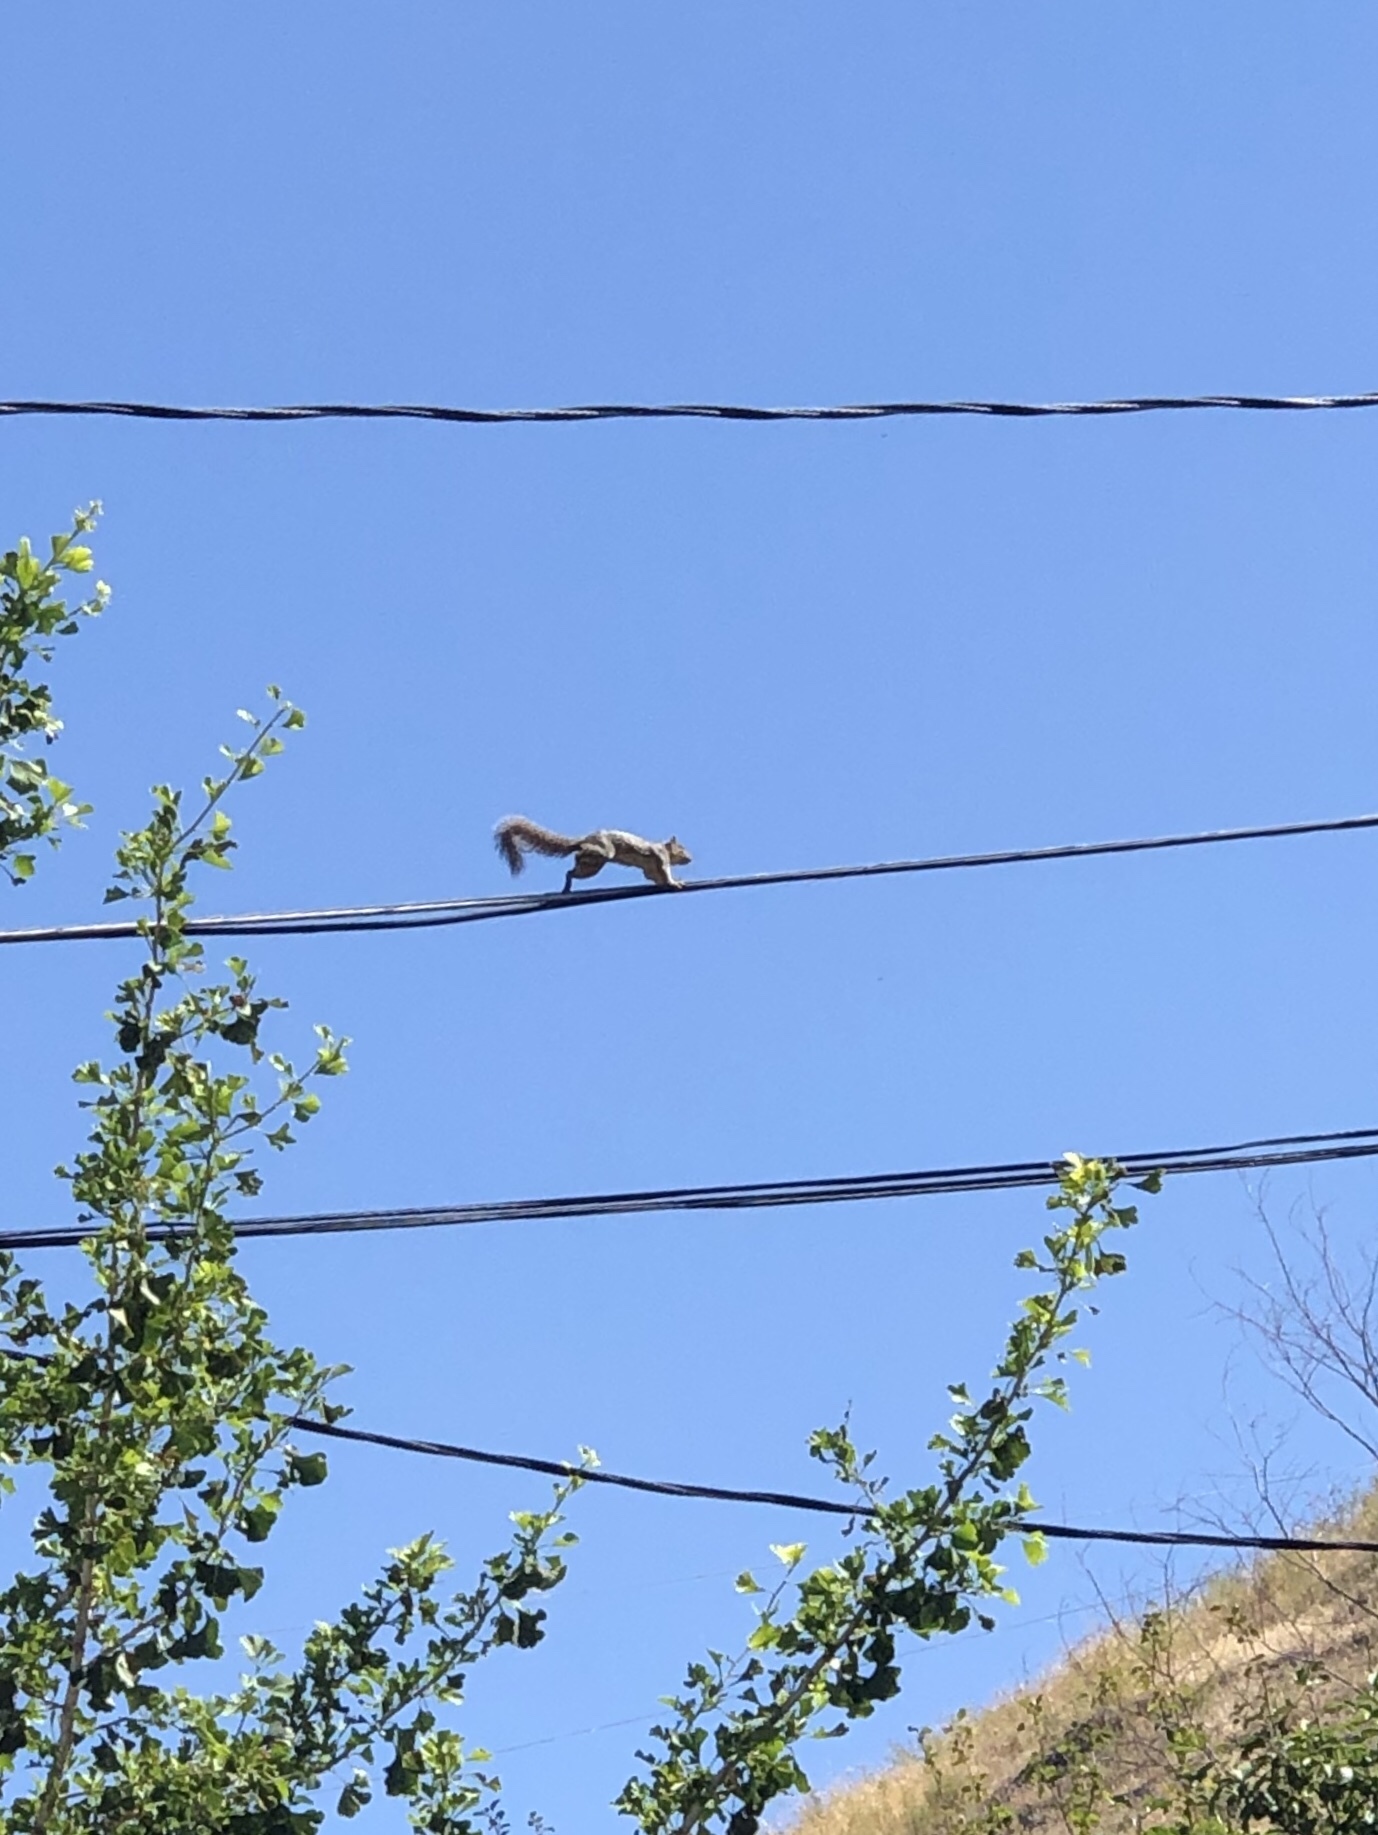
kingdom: Animalia
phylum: Chordata
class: Mammalia
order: Rodentia
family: Sciuridae
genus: Sciurus
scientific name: Sciurus niger
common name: Fox squirrel
